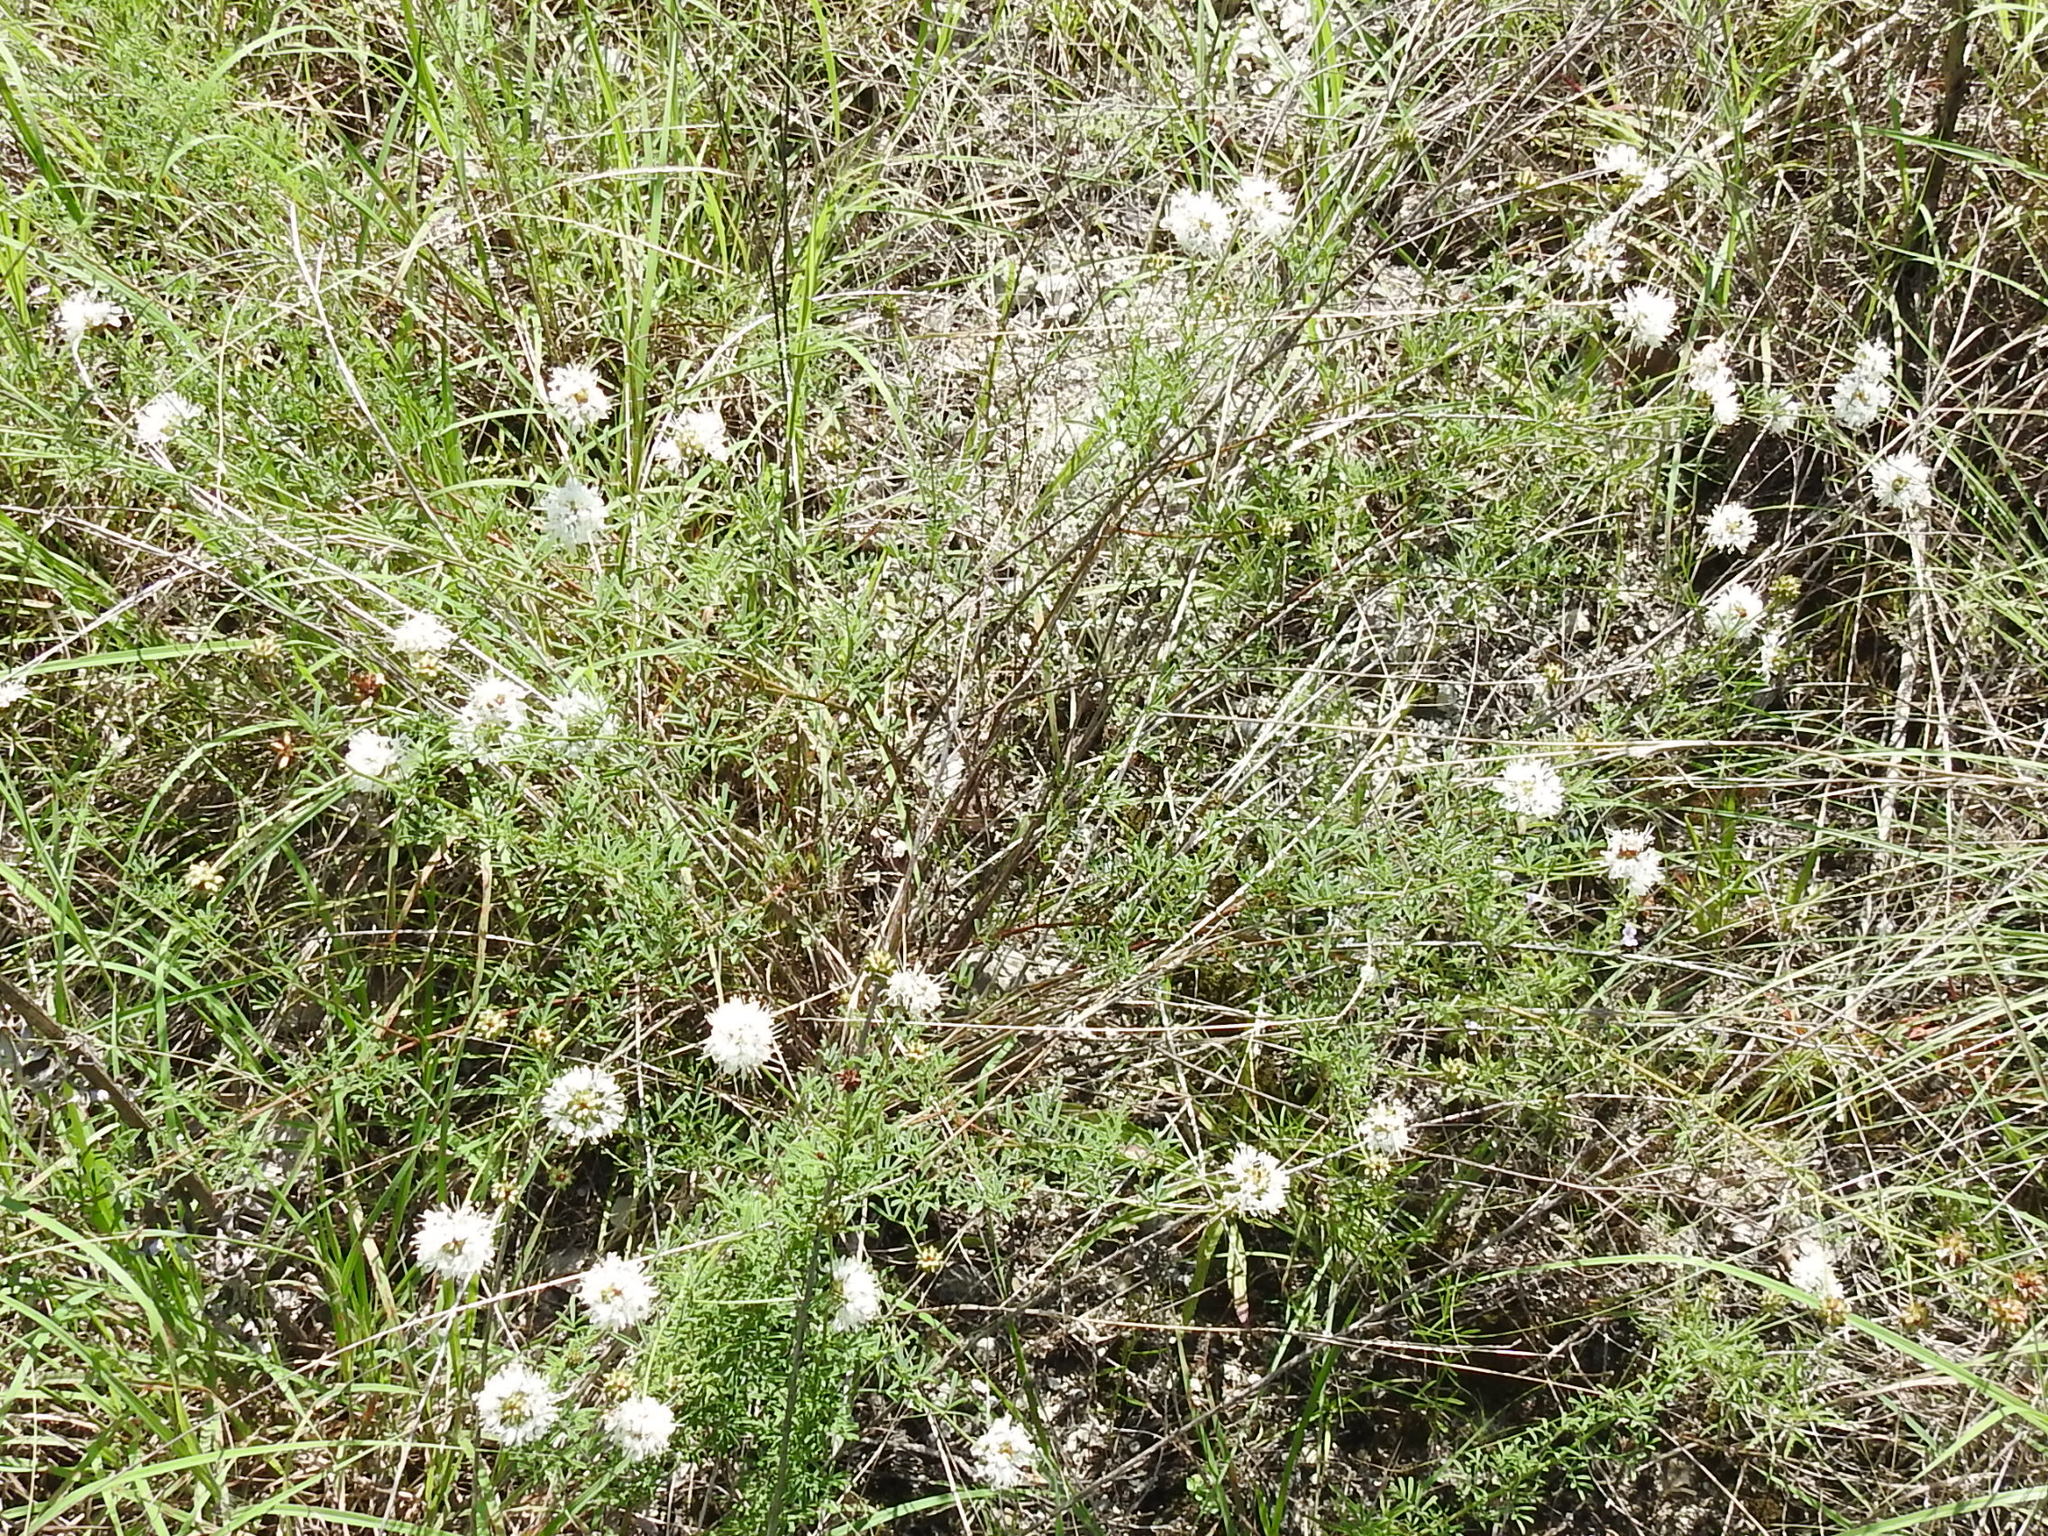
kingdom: Plantae
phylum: Tracheophyta
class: Magnoliopsida
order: Fabales
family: Fabaceae
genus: Dalea
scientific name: Dalea multiflora
